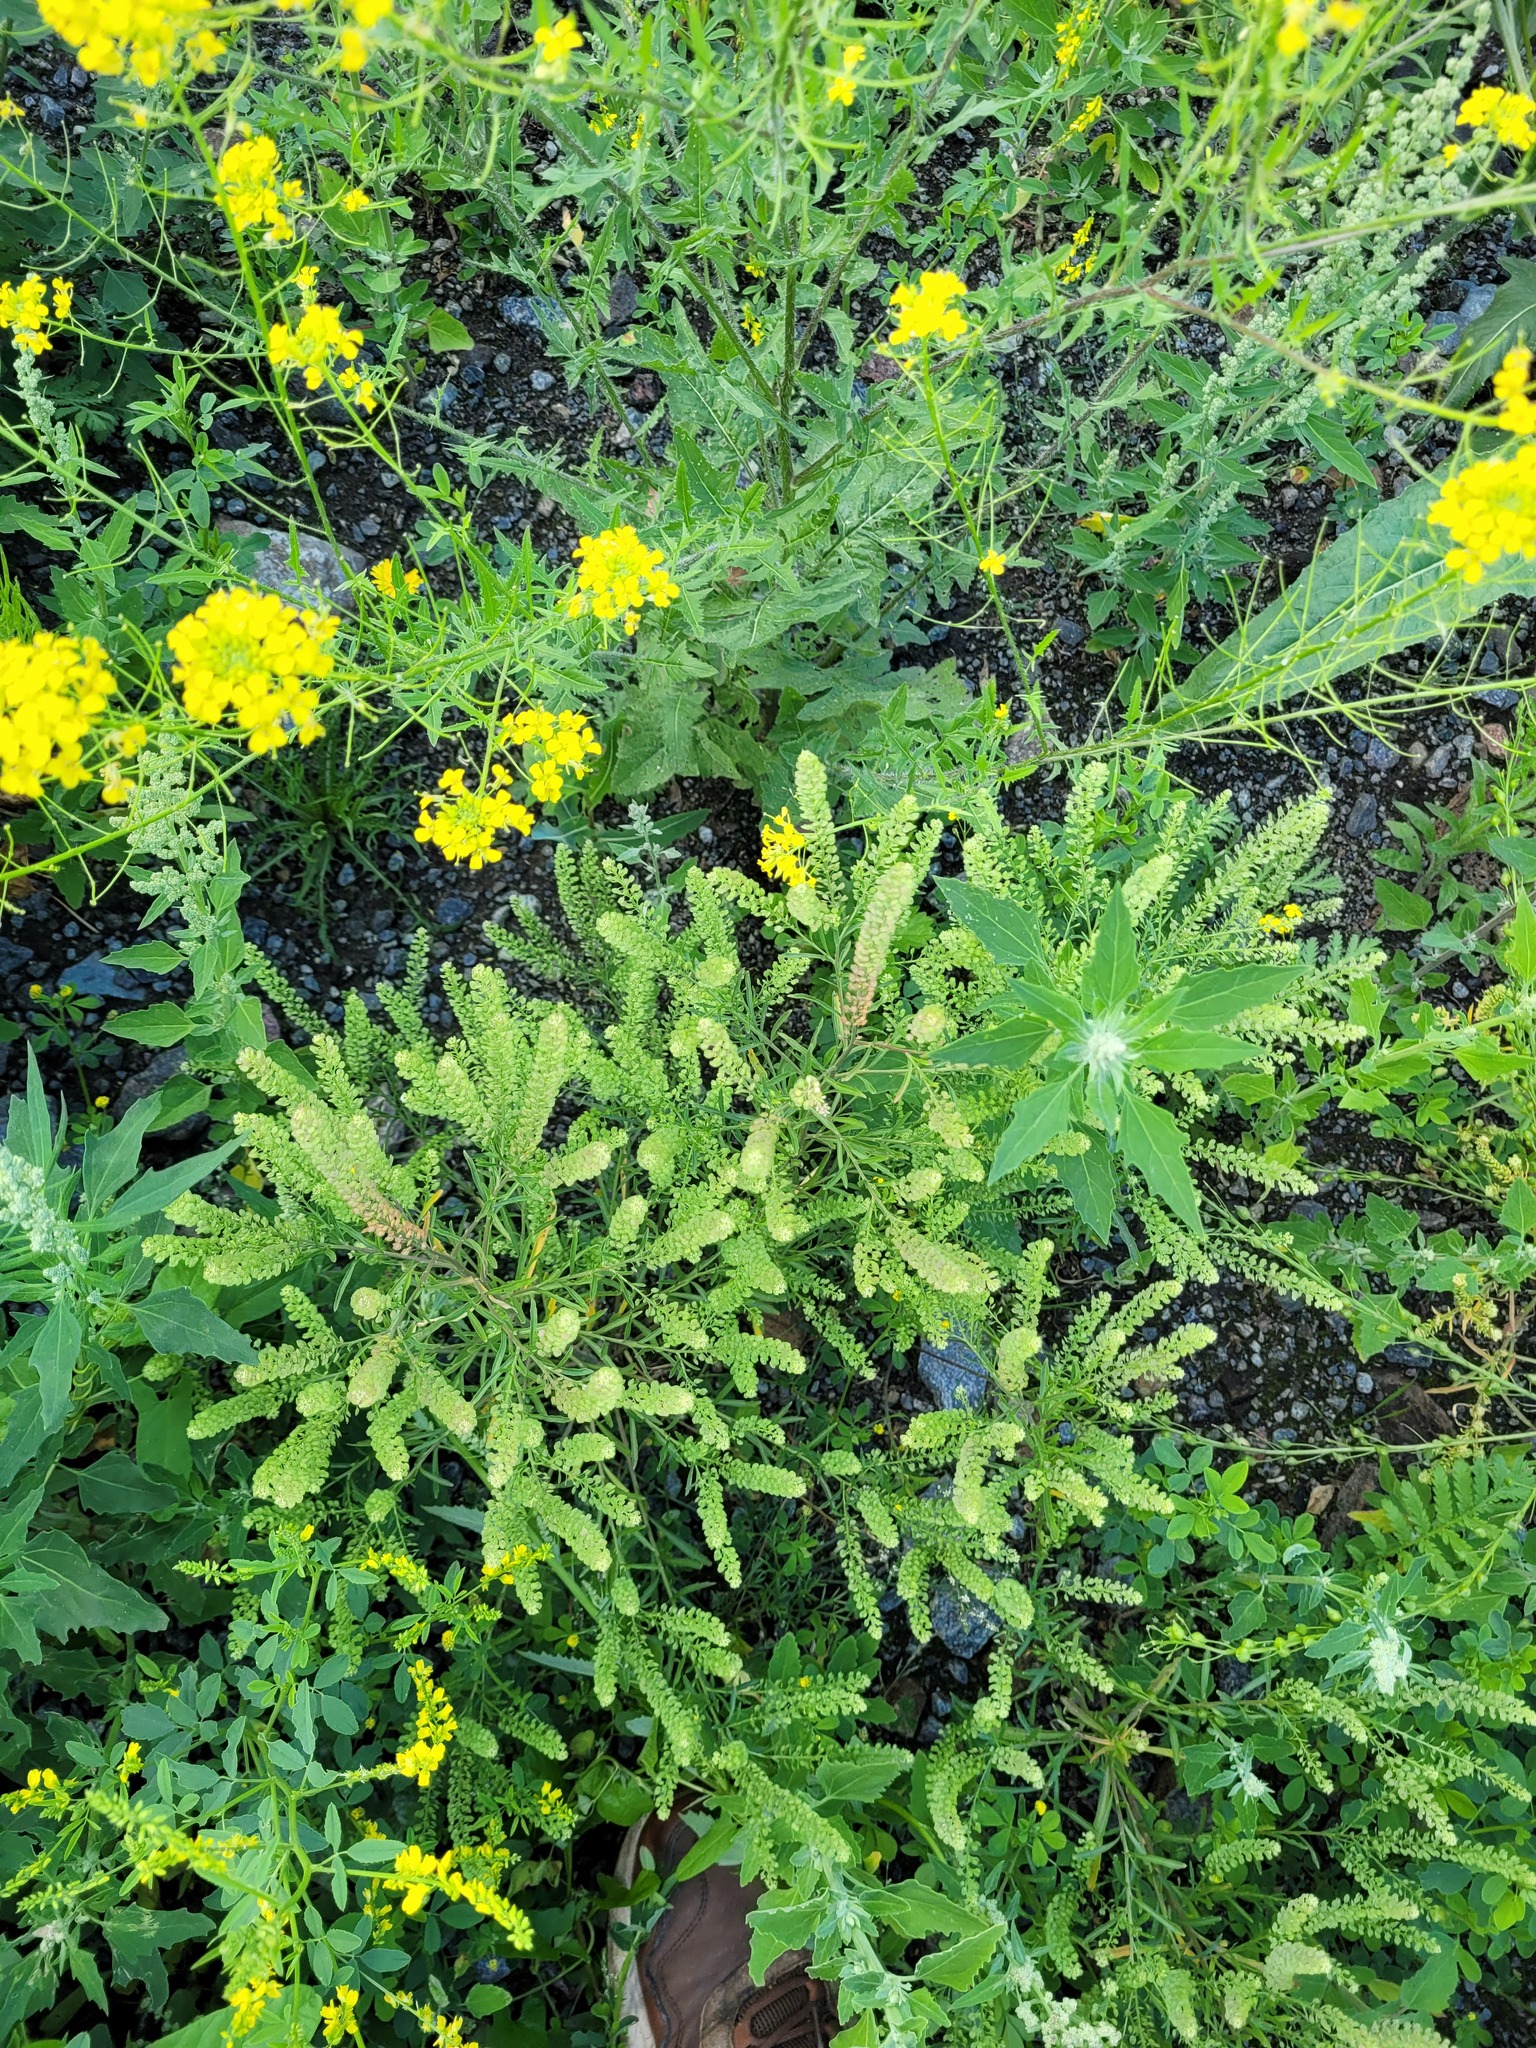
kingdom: Plantae
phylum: Tracheophyta
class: Magnoliopsida
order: Brassicales
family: Brassicaceae
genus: Lepidium
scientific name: Lepidium densiflorum
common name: Miner's pepperwort
